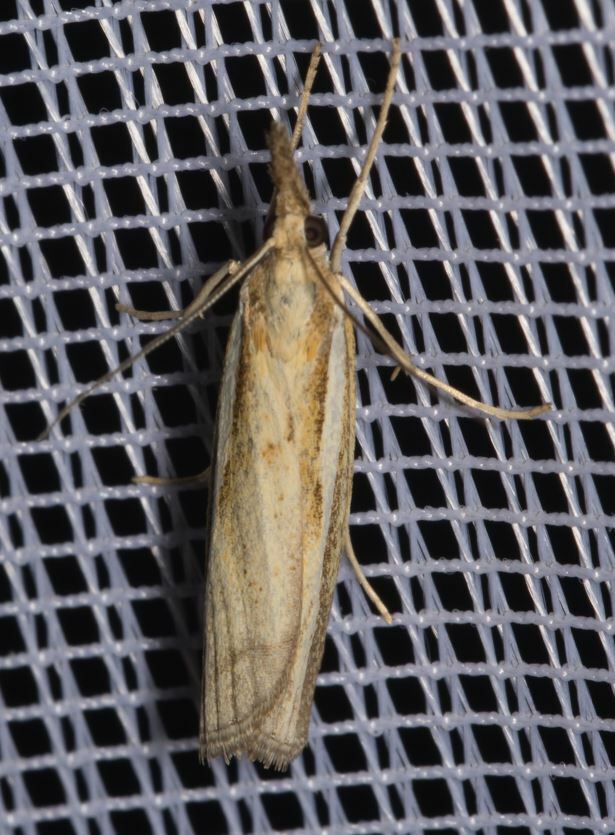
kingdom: Animalia
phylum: Arthropoda
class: Insecta
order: Lepidoptera
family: Crambidae
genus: Agriphila
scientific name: Agriphila tristellus
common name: Common grass-veneer
